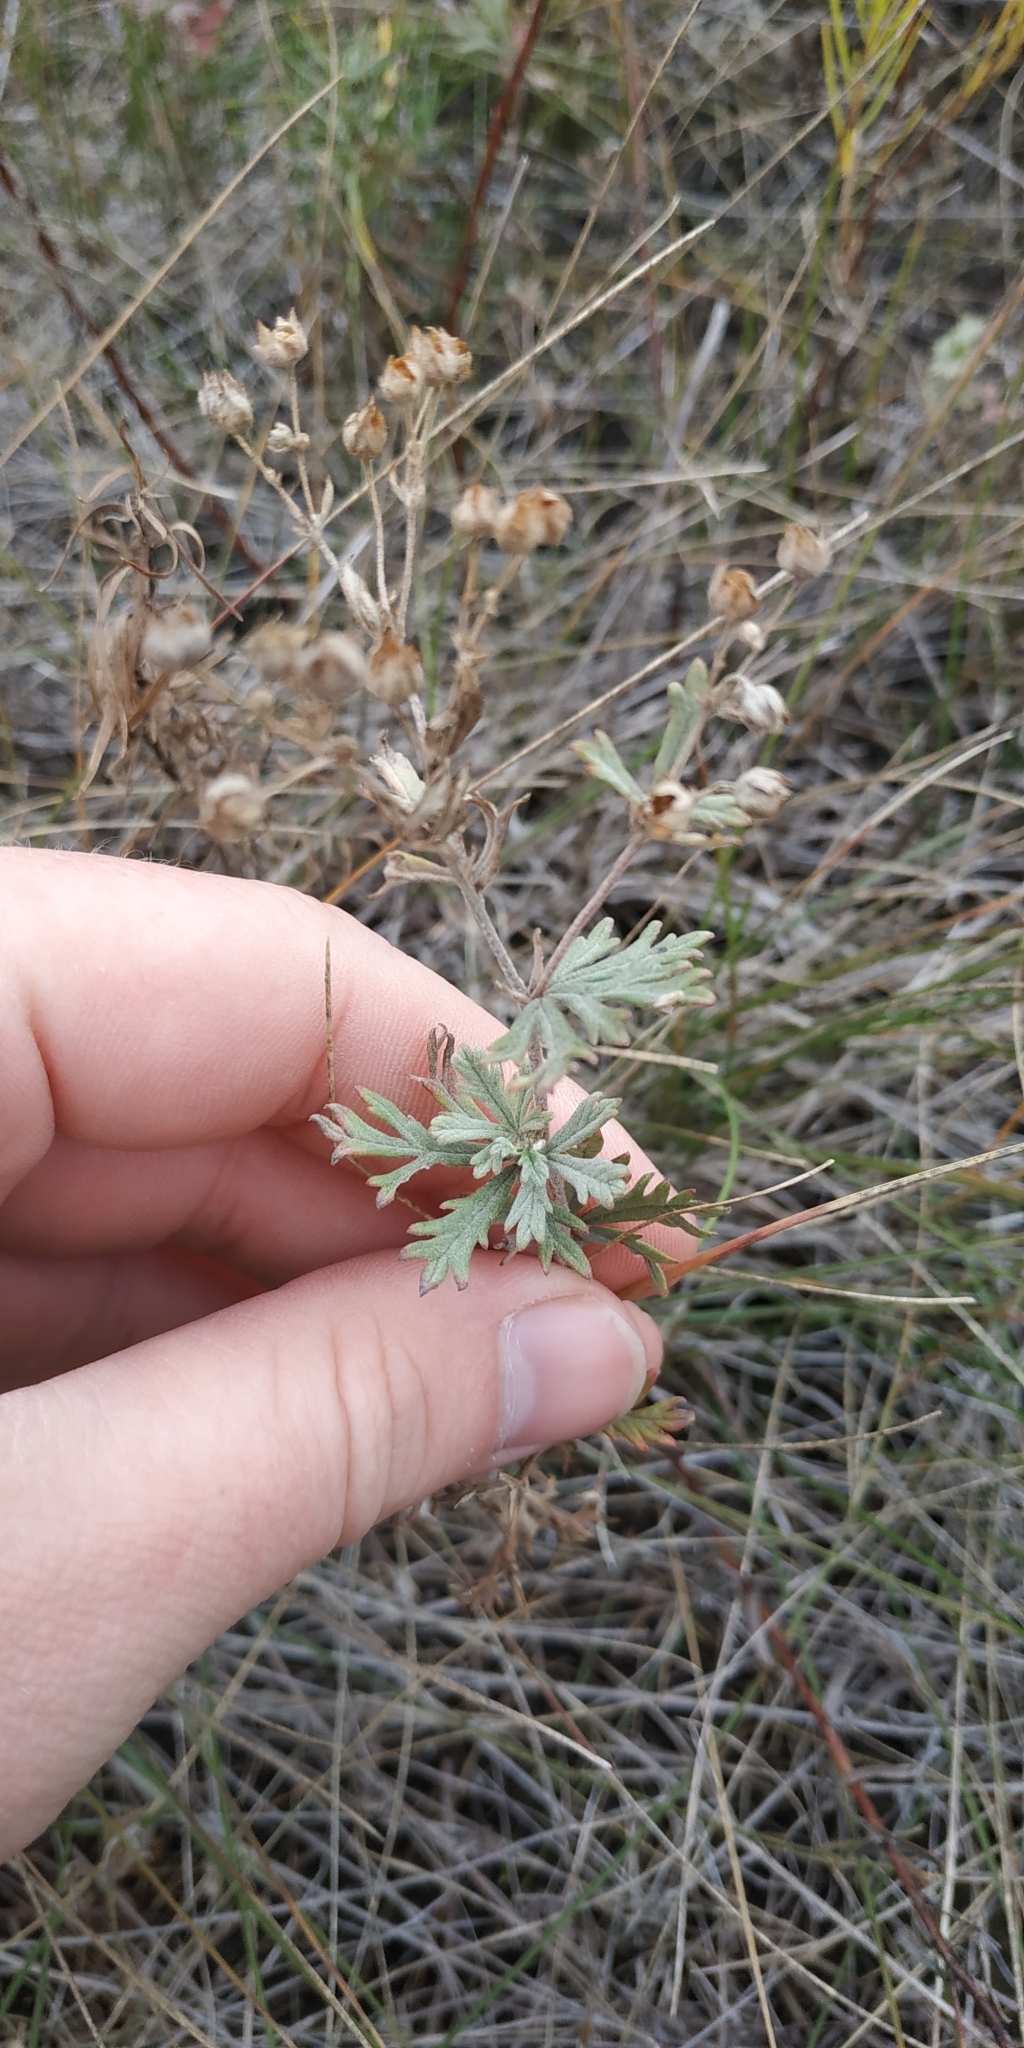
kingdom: Plantae
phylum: Tracheophyta
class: Magnoliopsida
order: Rosales
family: Rosaceae
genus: Potentilla
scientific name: Potentilla argentea
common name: Hoary cinquefoil
